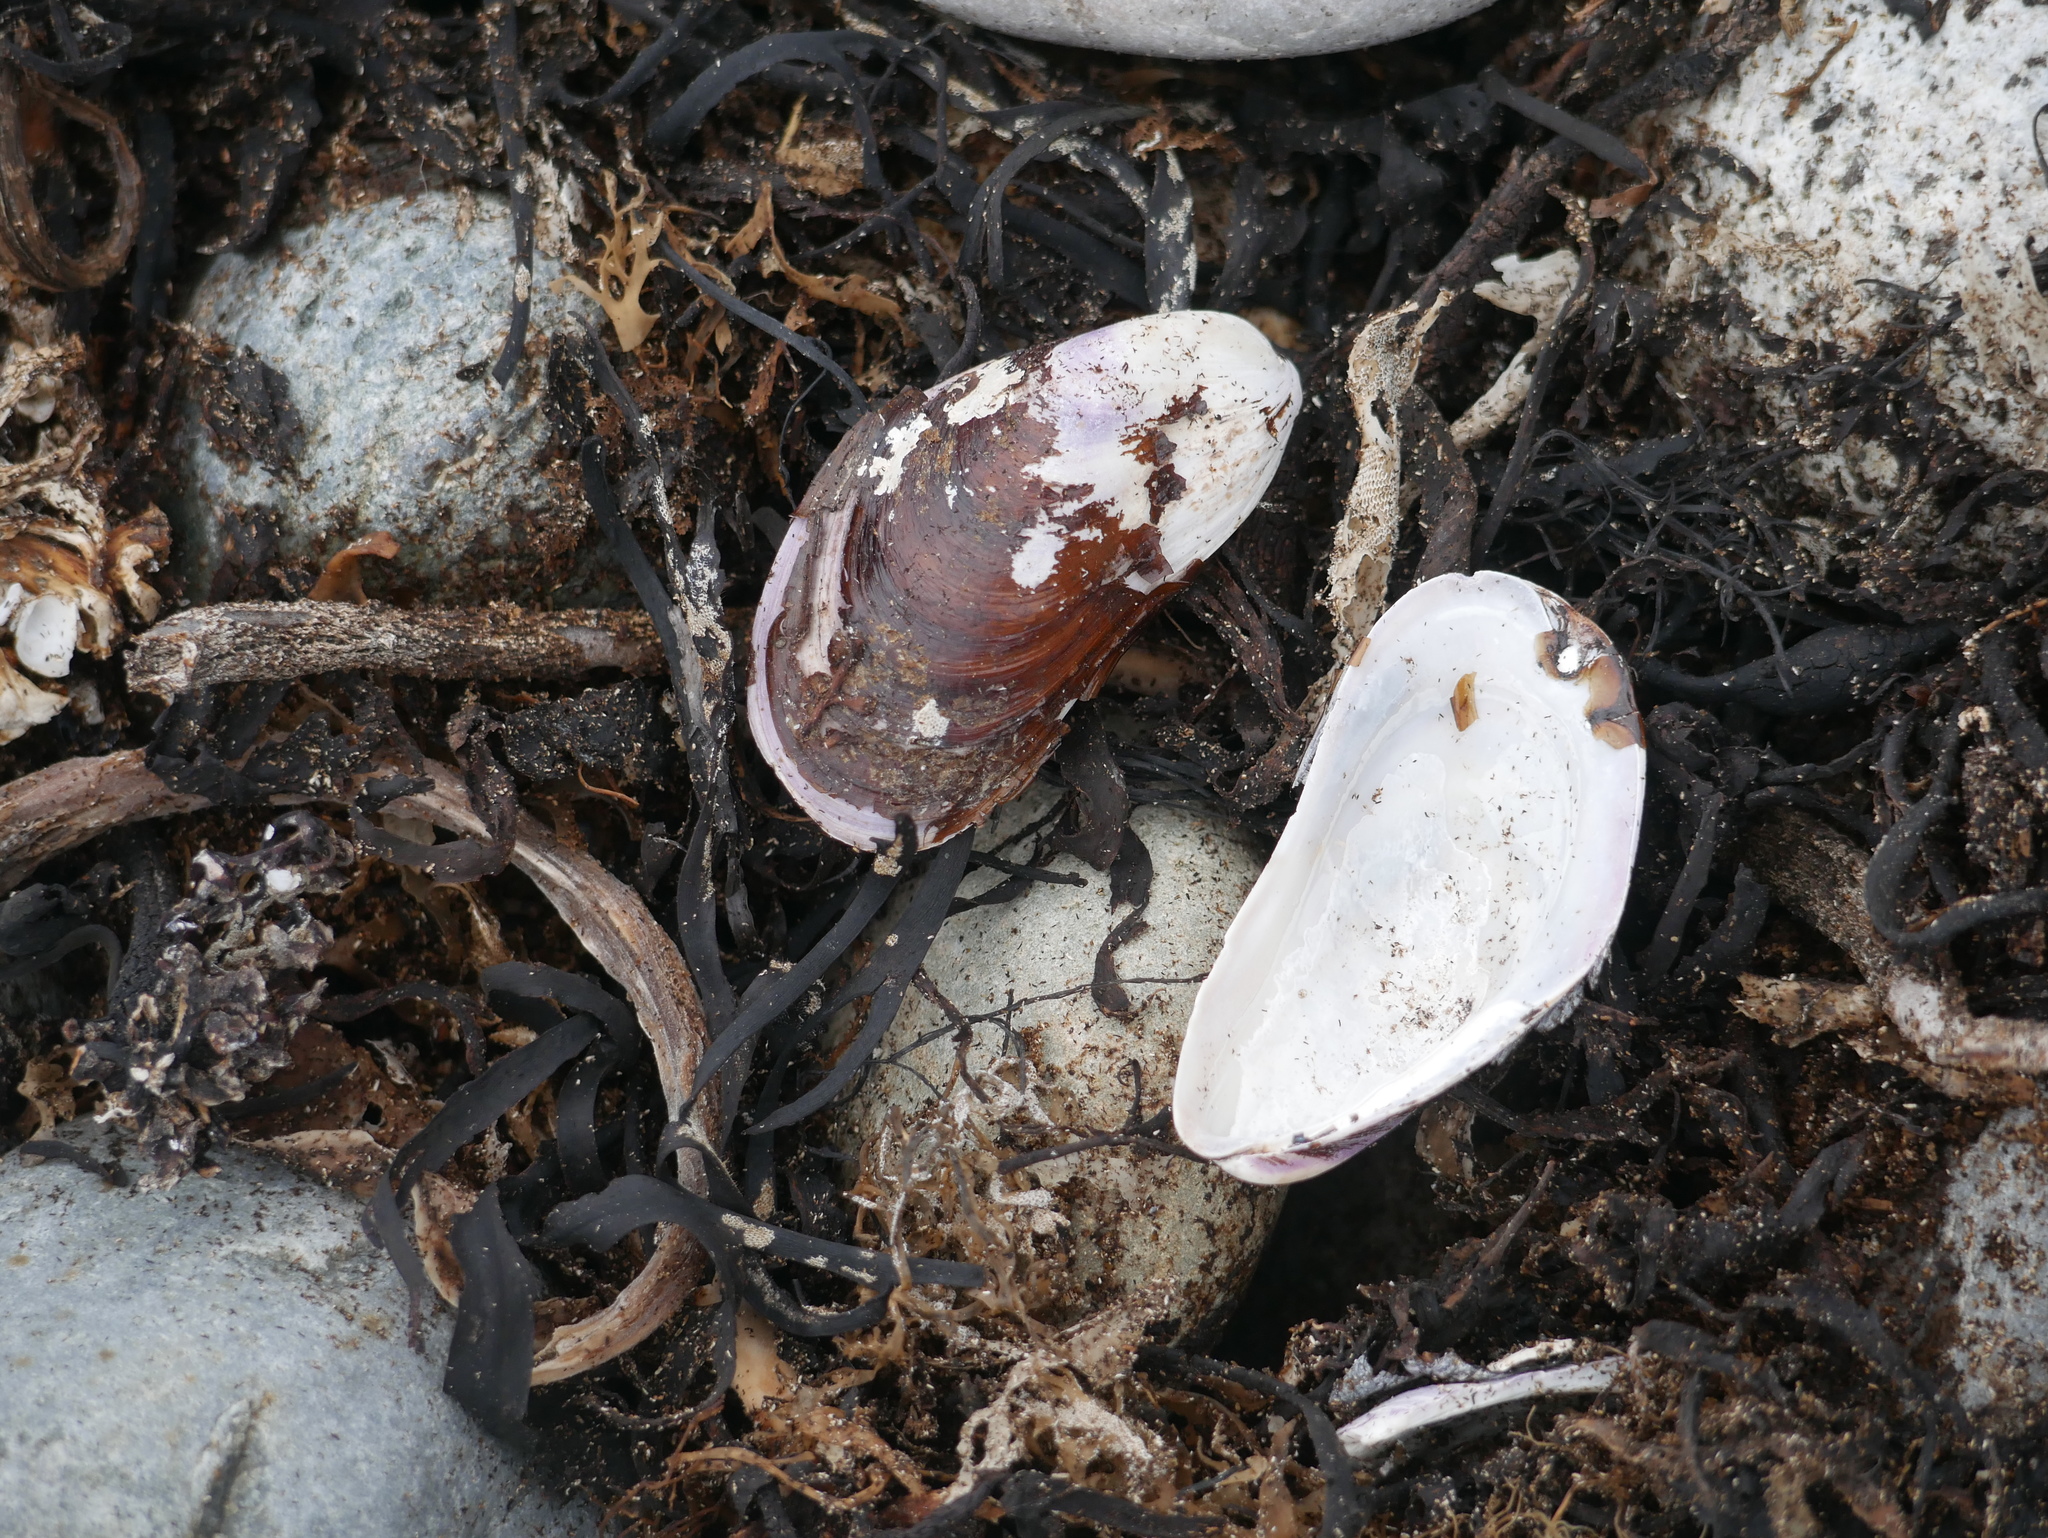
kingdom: Animalia
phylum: Mollusca
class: Bivalvia
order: Mytilida
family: Mytilidae
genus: Modiolus
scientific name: Modiolus modiolus
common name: Horse-mussel
